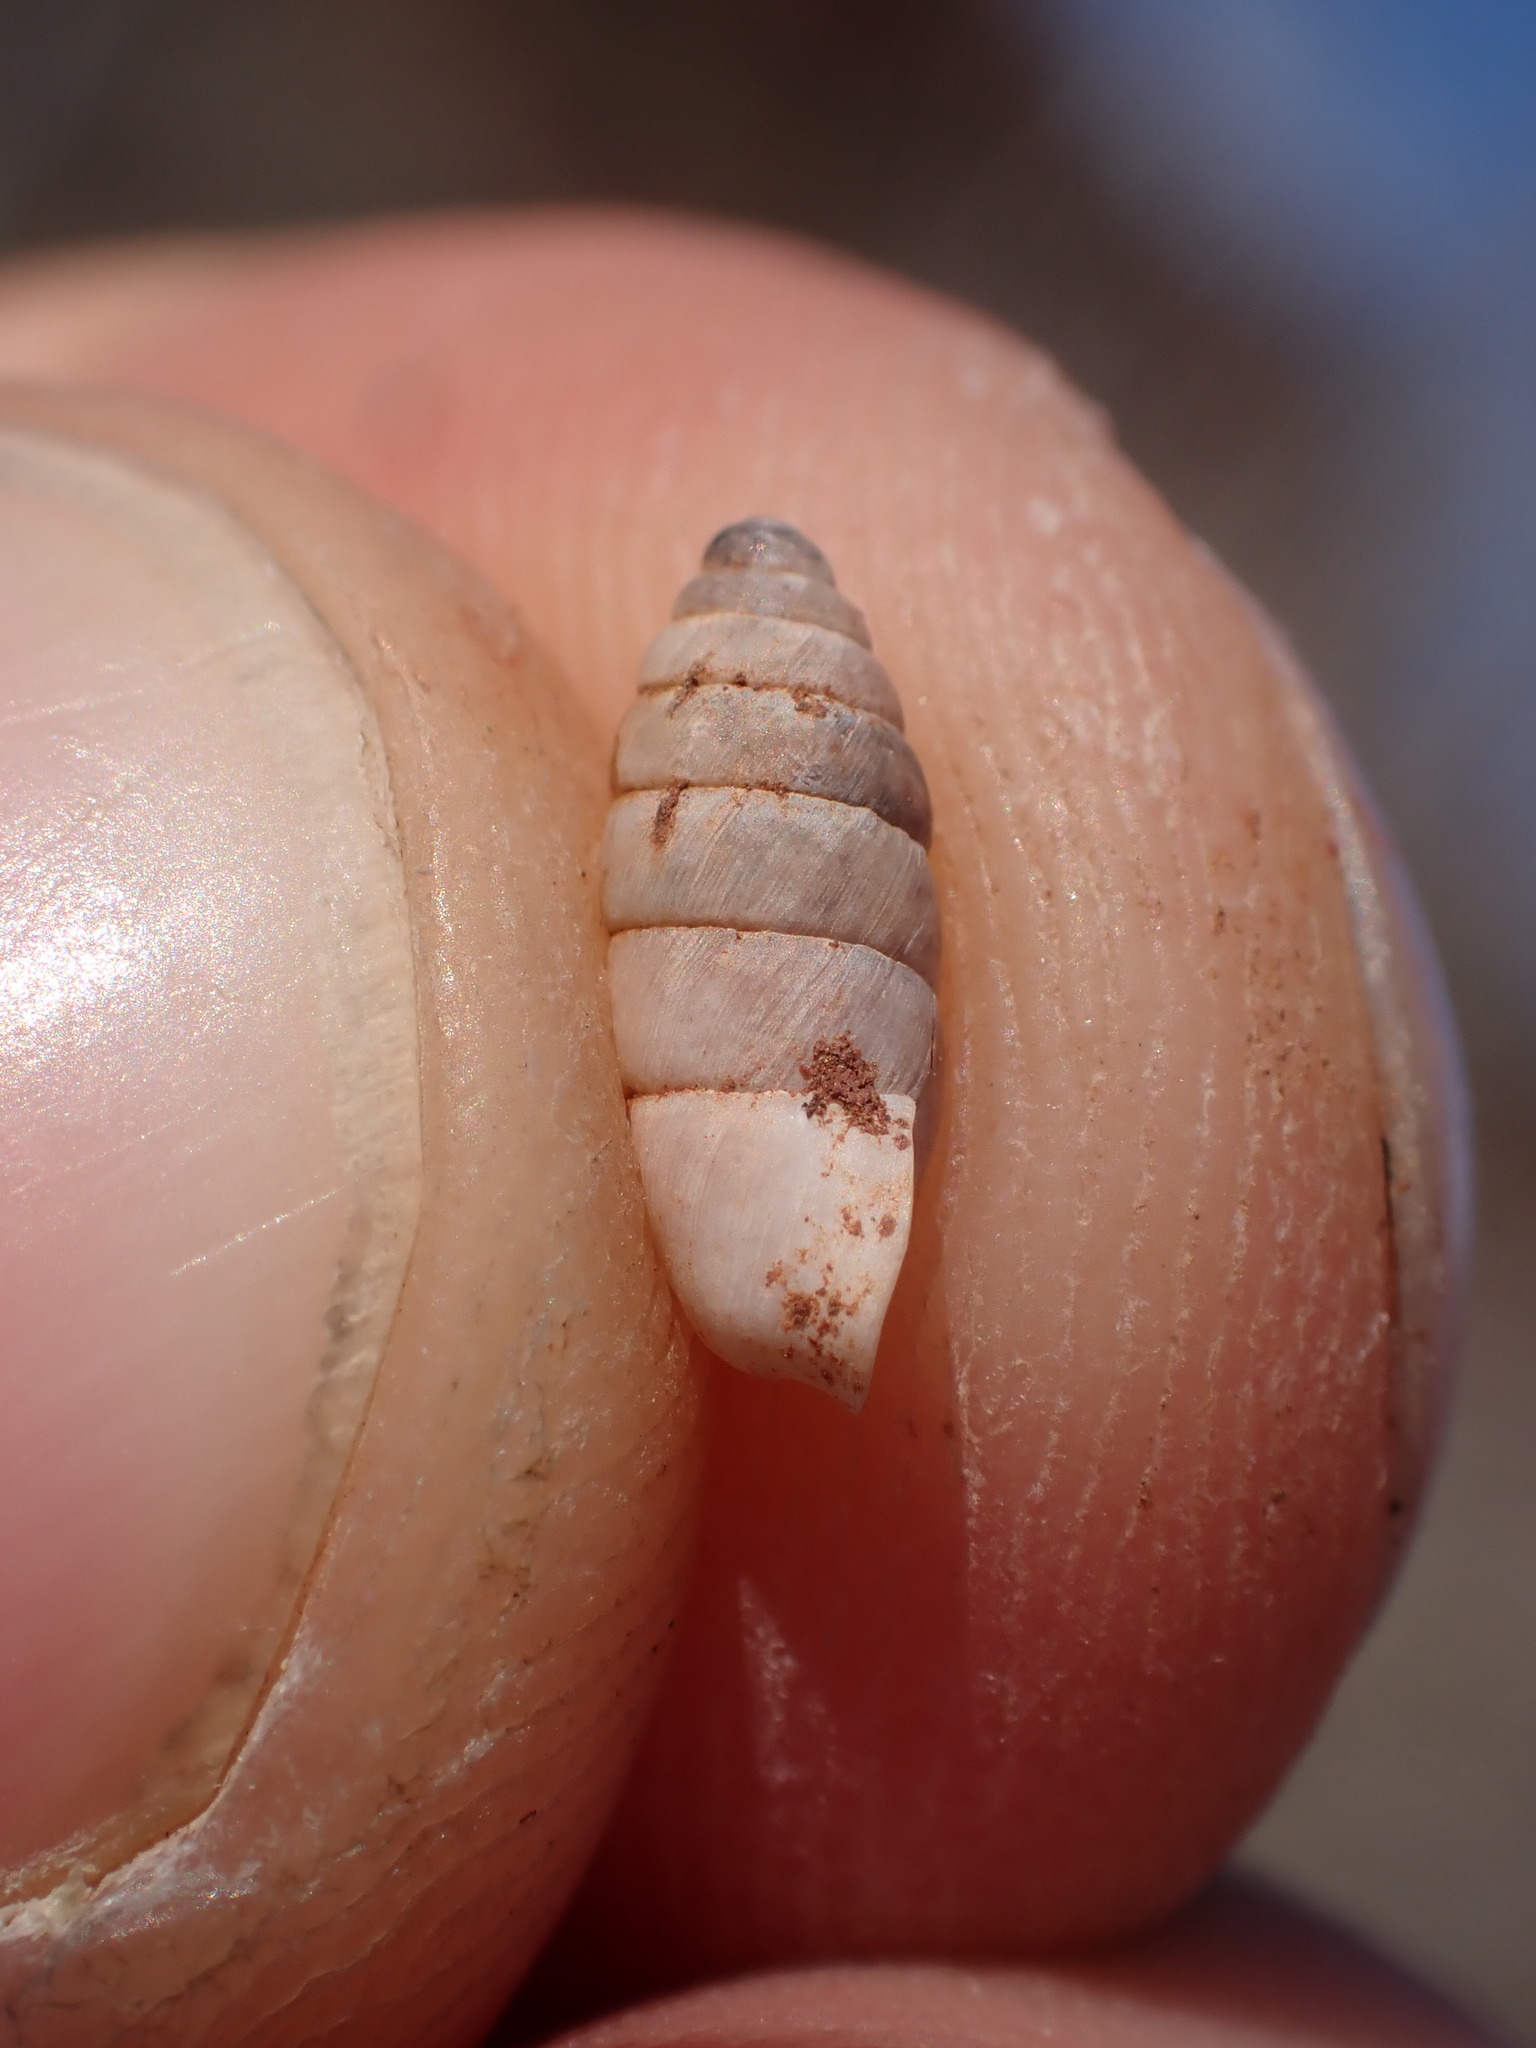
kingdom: Animalia
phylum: Mollusca
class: Gastropoda
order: Stylommatophora
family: Enidae
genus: Jaminia
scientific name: Jaminia quadridens
